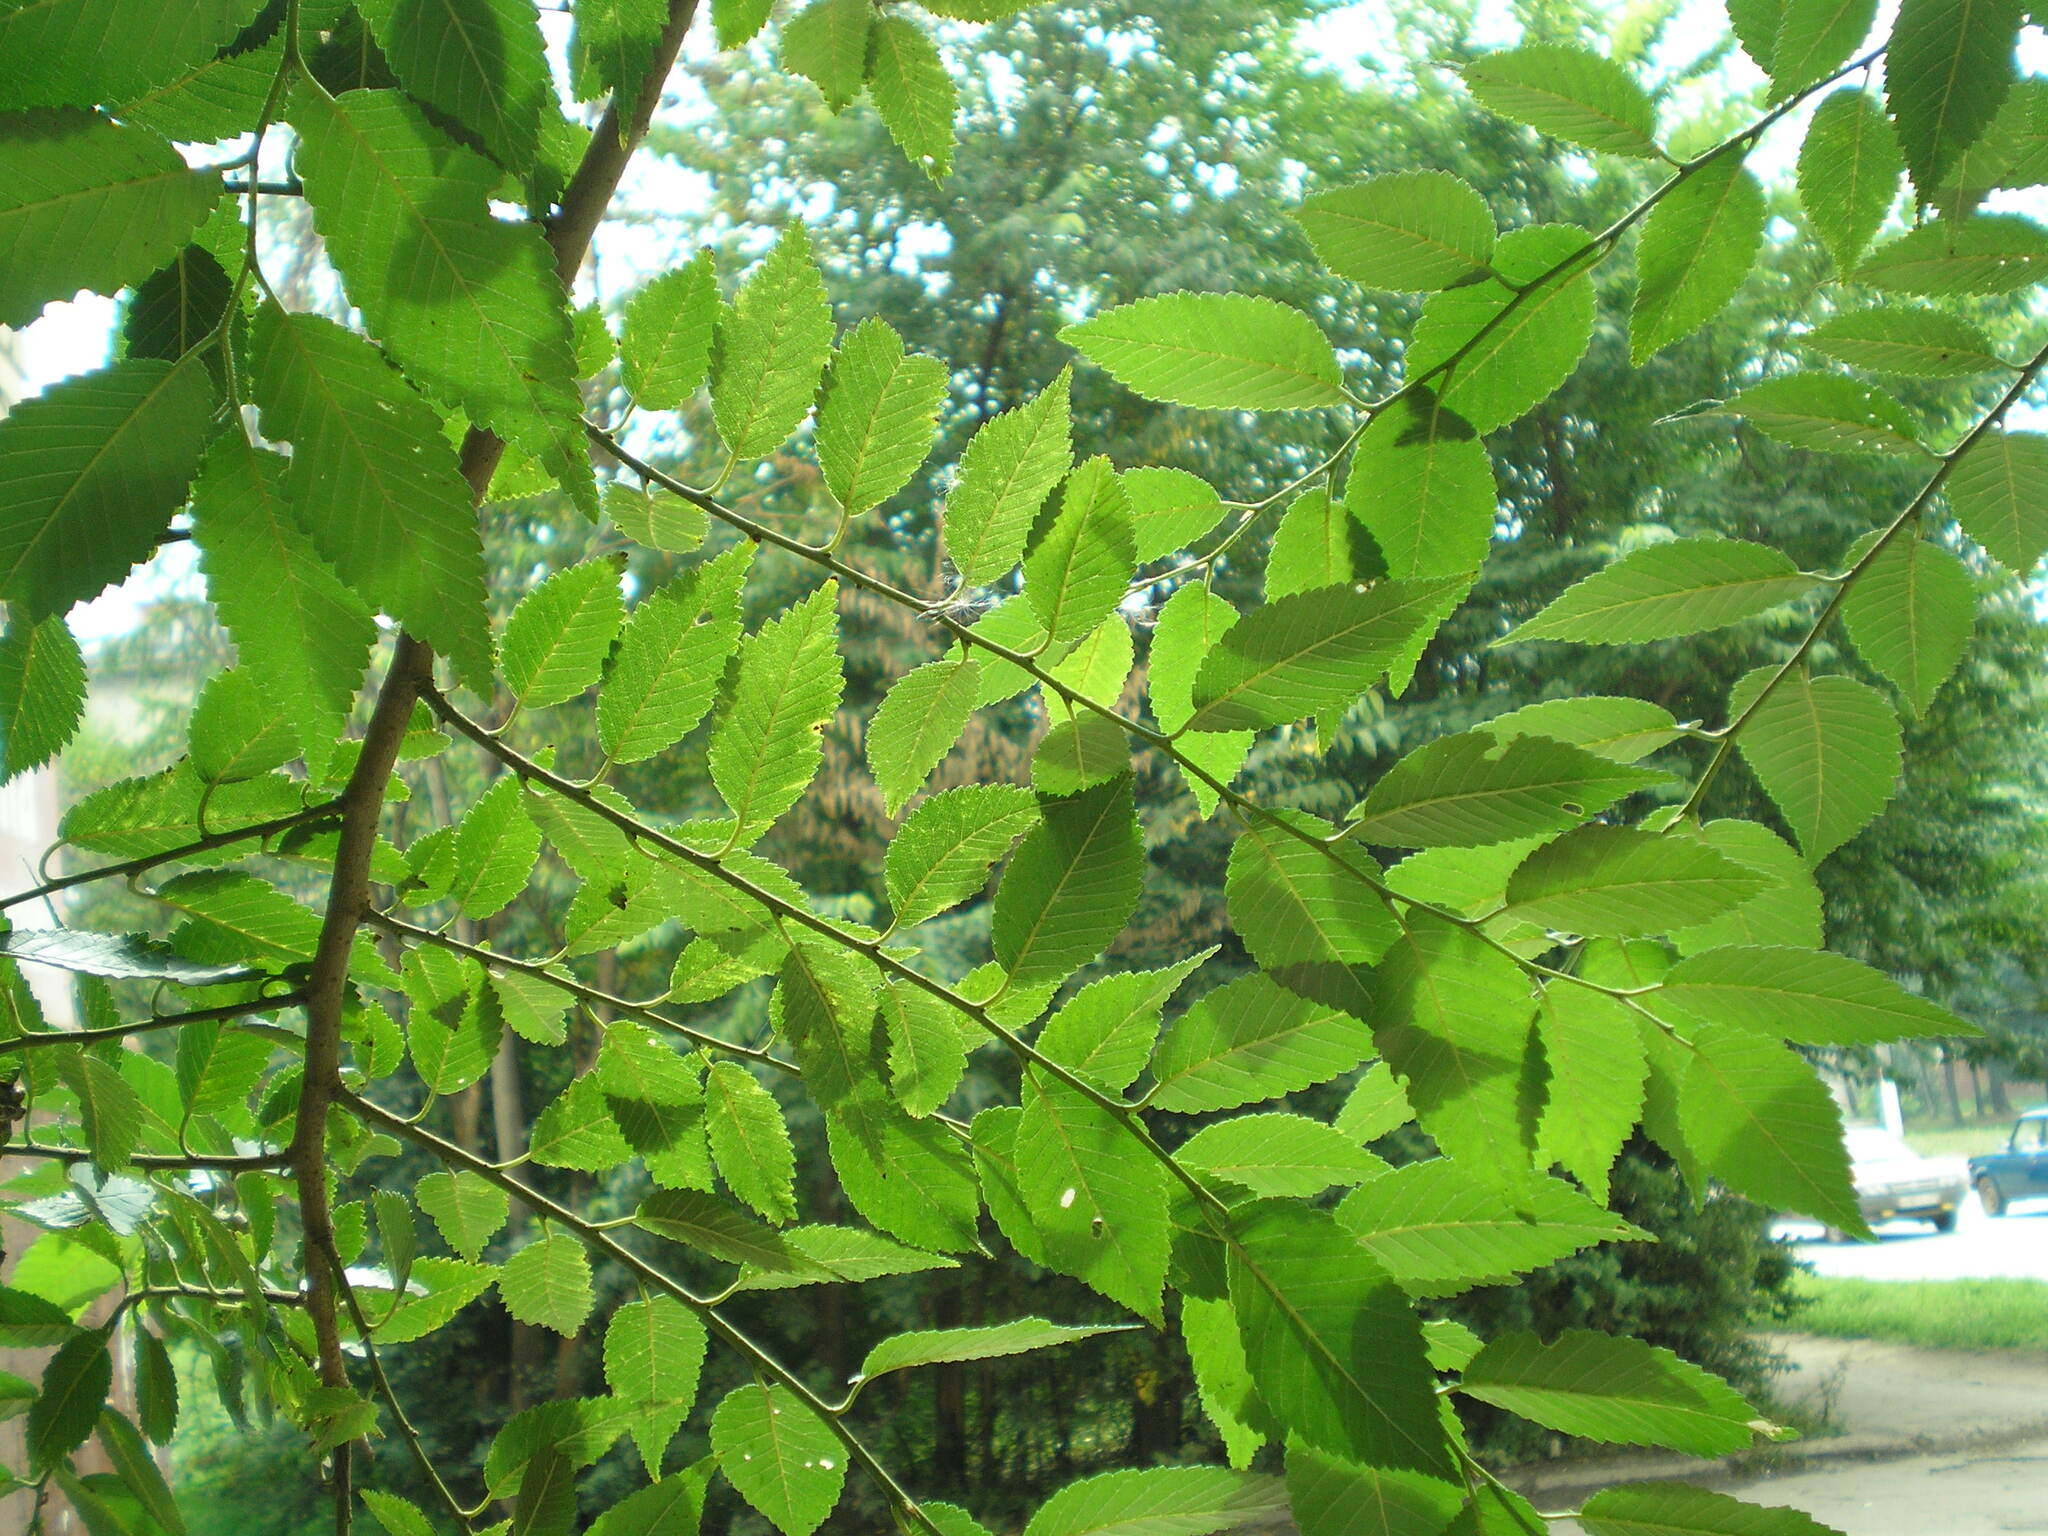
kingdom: Plantae
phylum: Tracheophyta
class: Magnoliopsida
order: Rosales
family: Ulmaceae
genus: Ulmus
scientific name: Ulmus pumila
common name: Siberian elm
